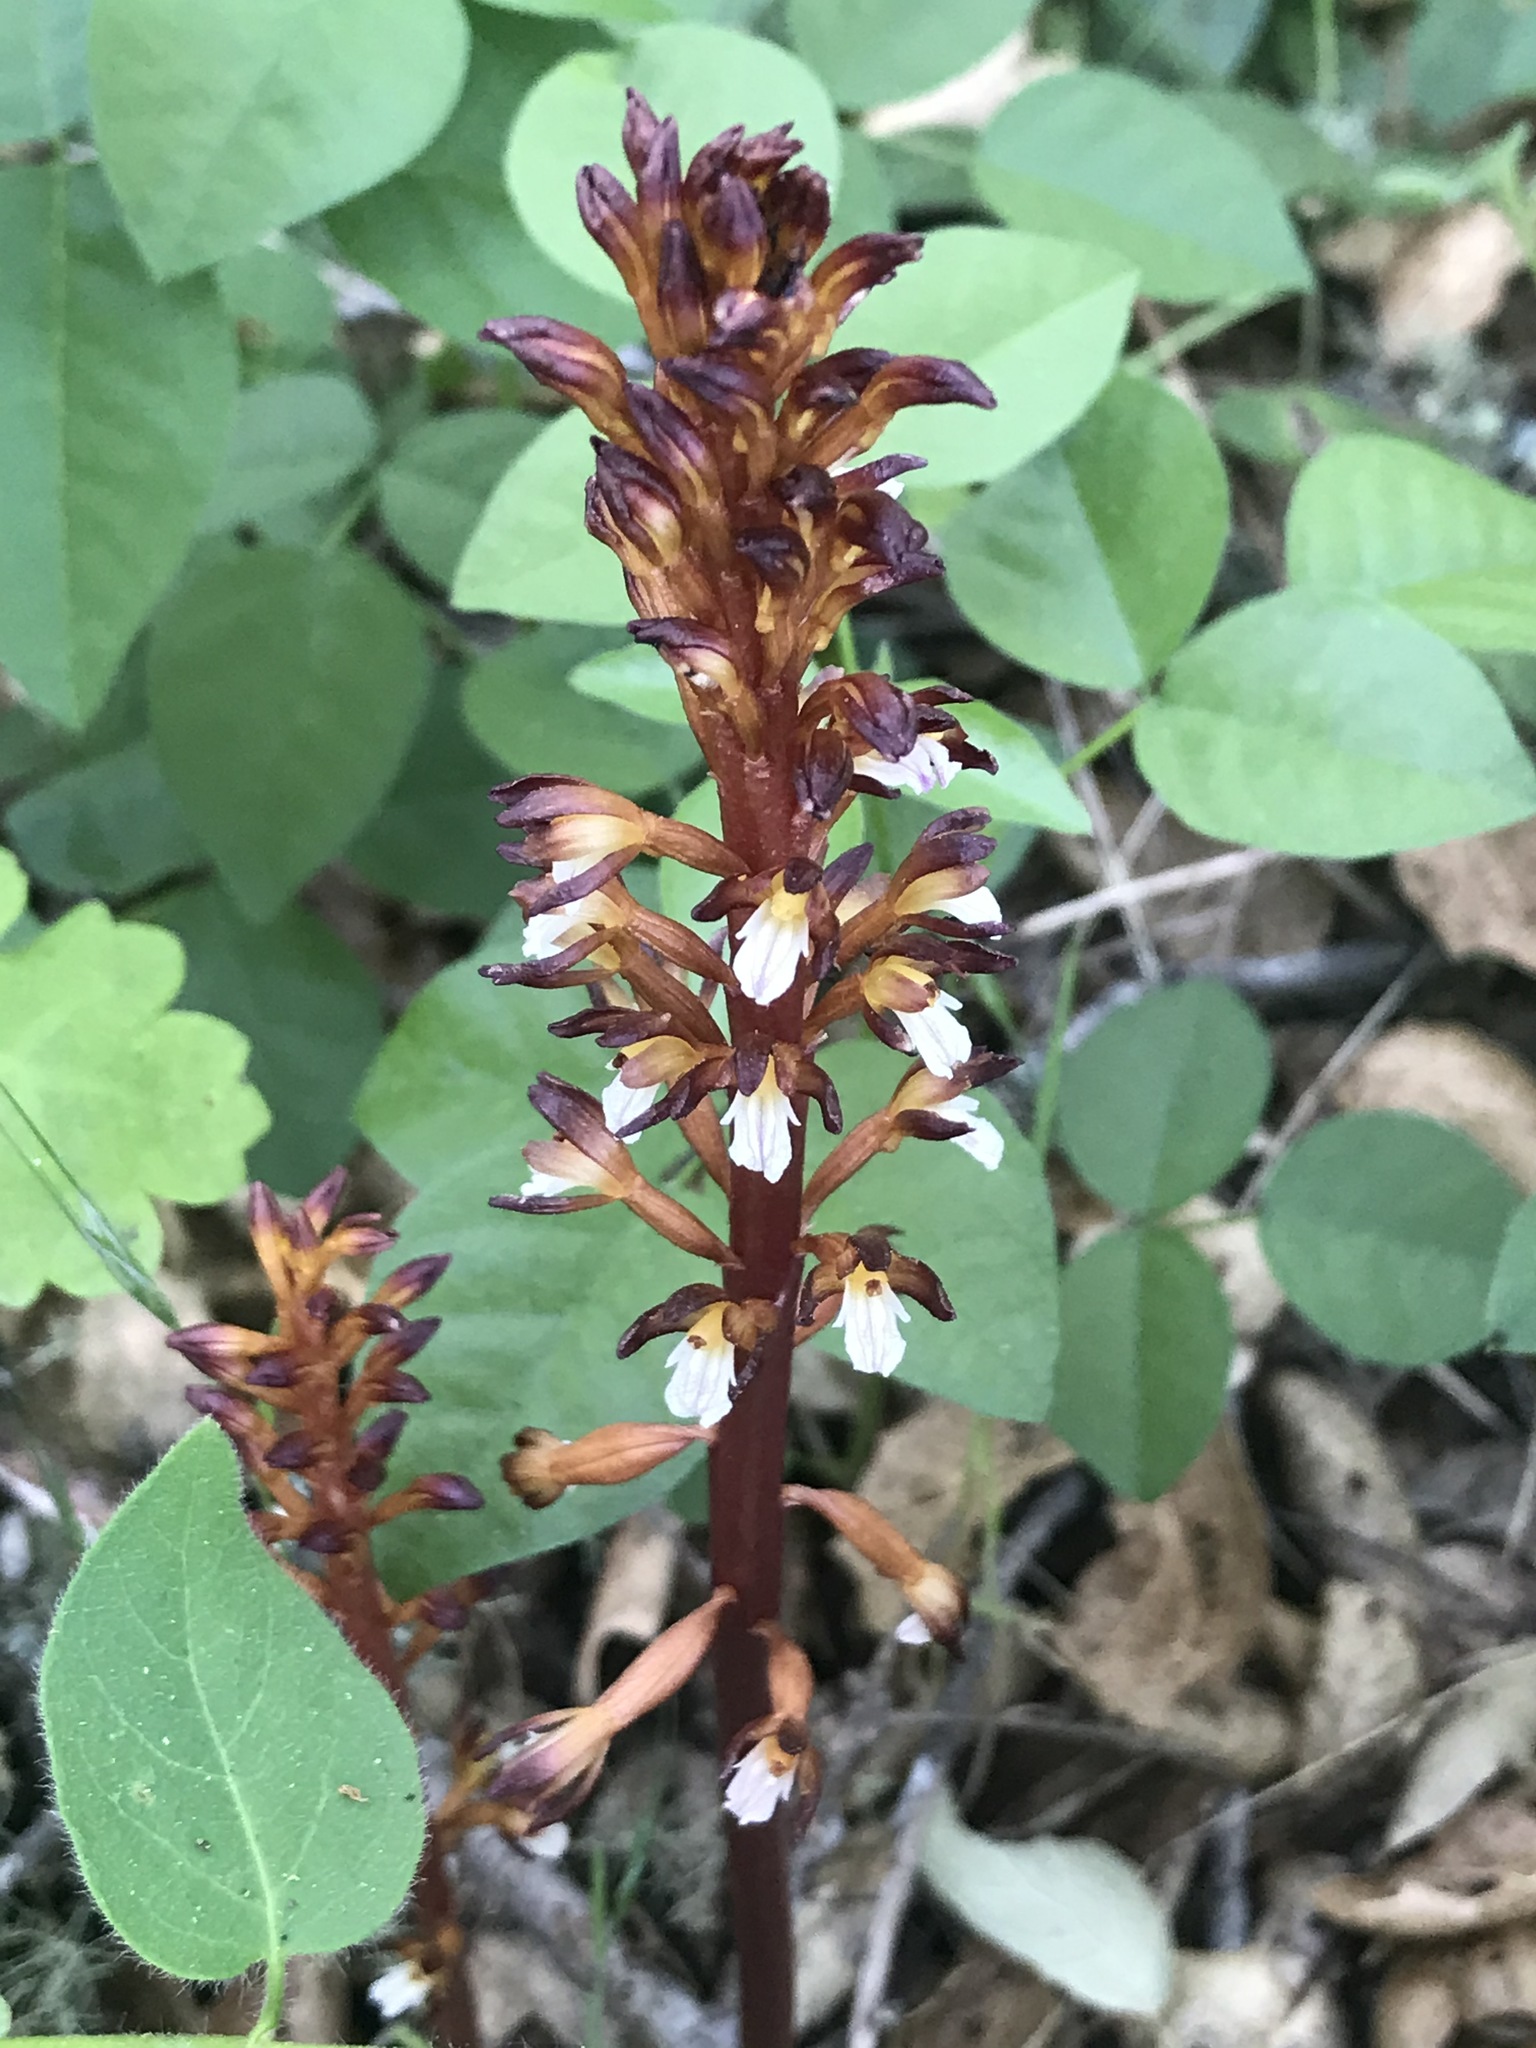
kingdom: Plantae
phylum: Tracheophyta
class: Liliopsida
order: Asparagales
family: Orchidaceae
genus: Corallorhiza
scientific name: Corallorhiza maculata
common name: Spotted coralroot
